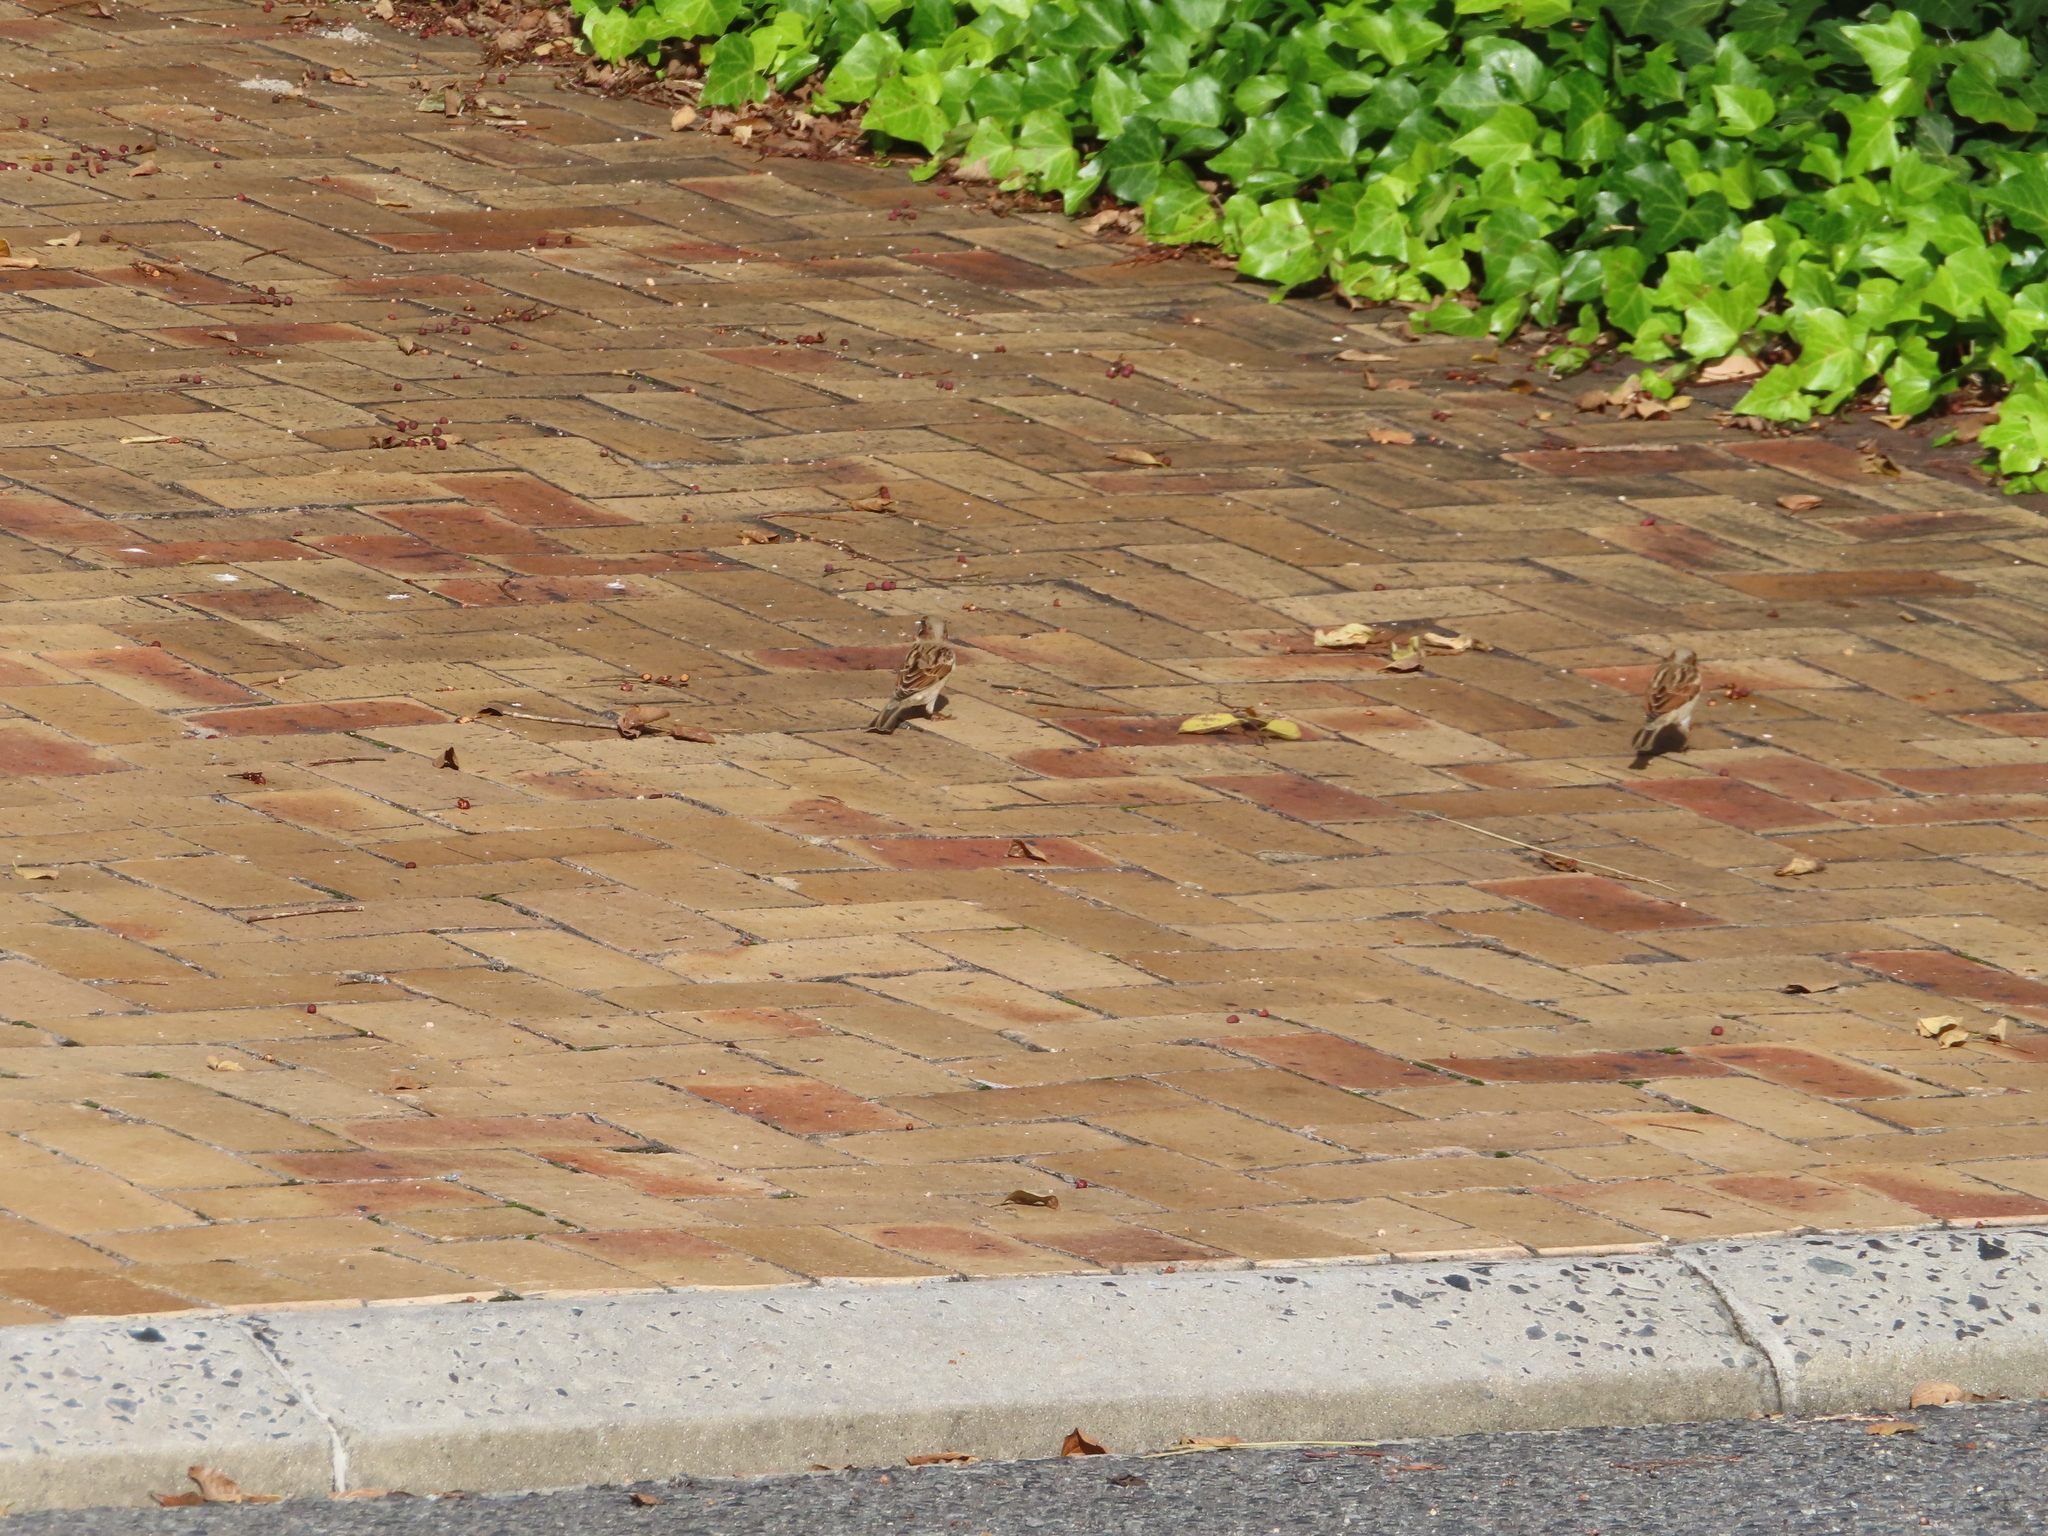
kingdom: Animalia
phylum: Chordata
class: Aves
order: Passeriformes
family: Passeridae
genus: Passer
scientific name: Passer domesticus
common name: House sparrow
